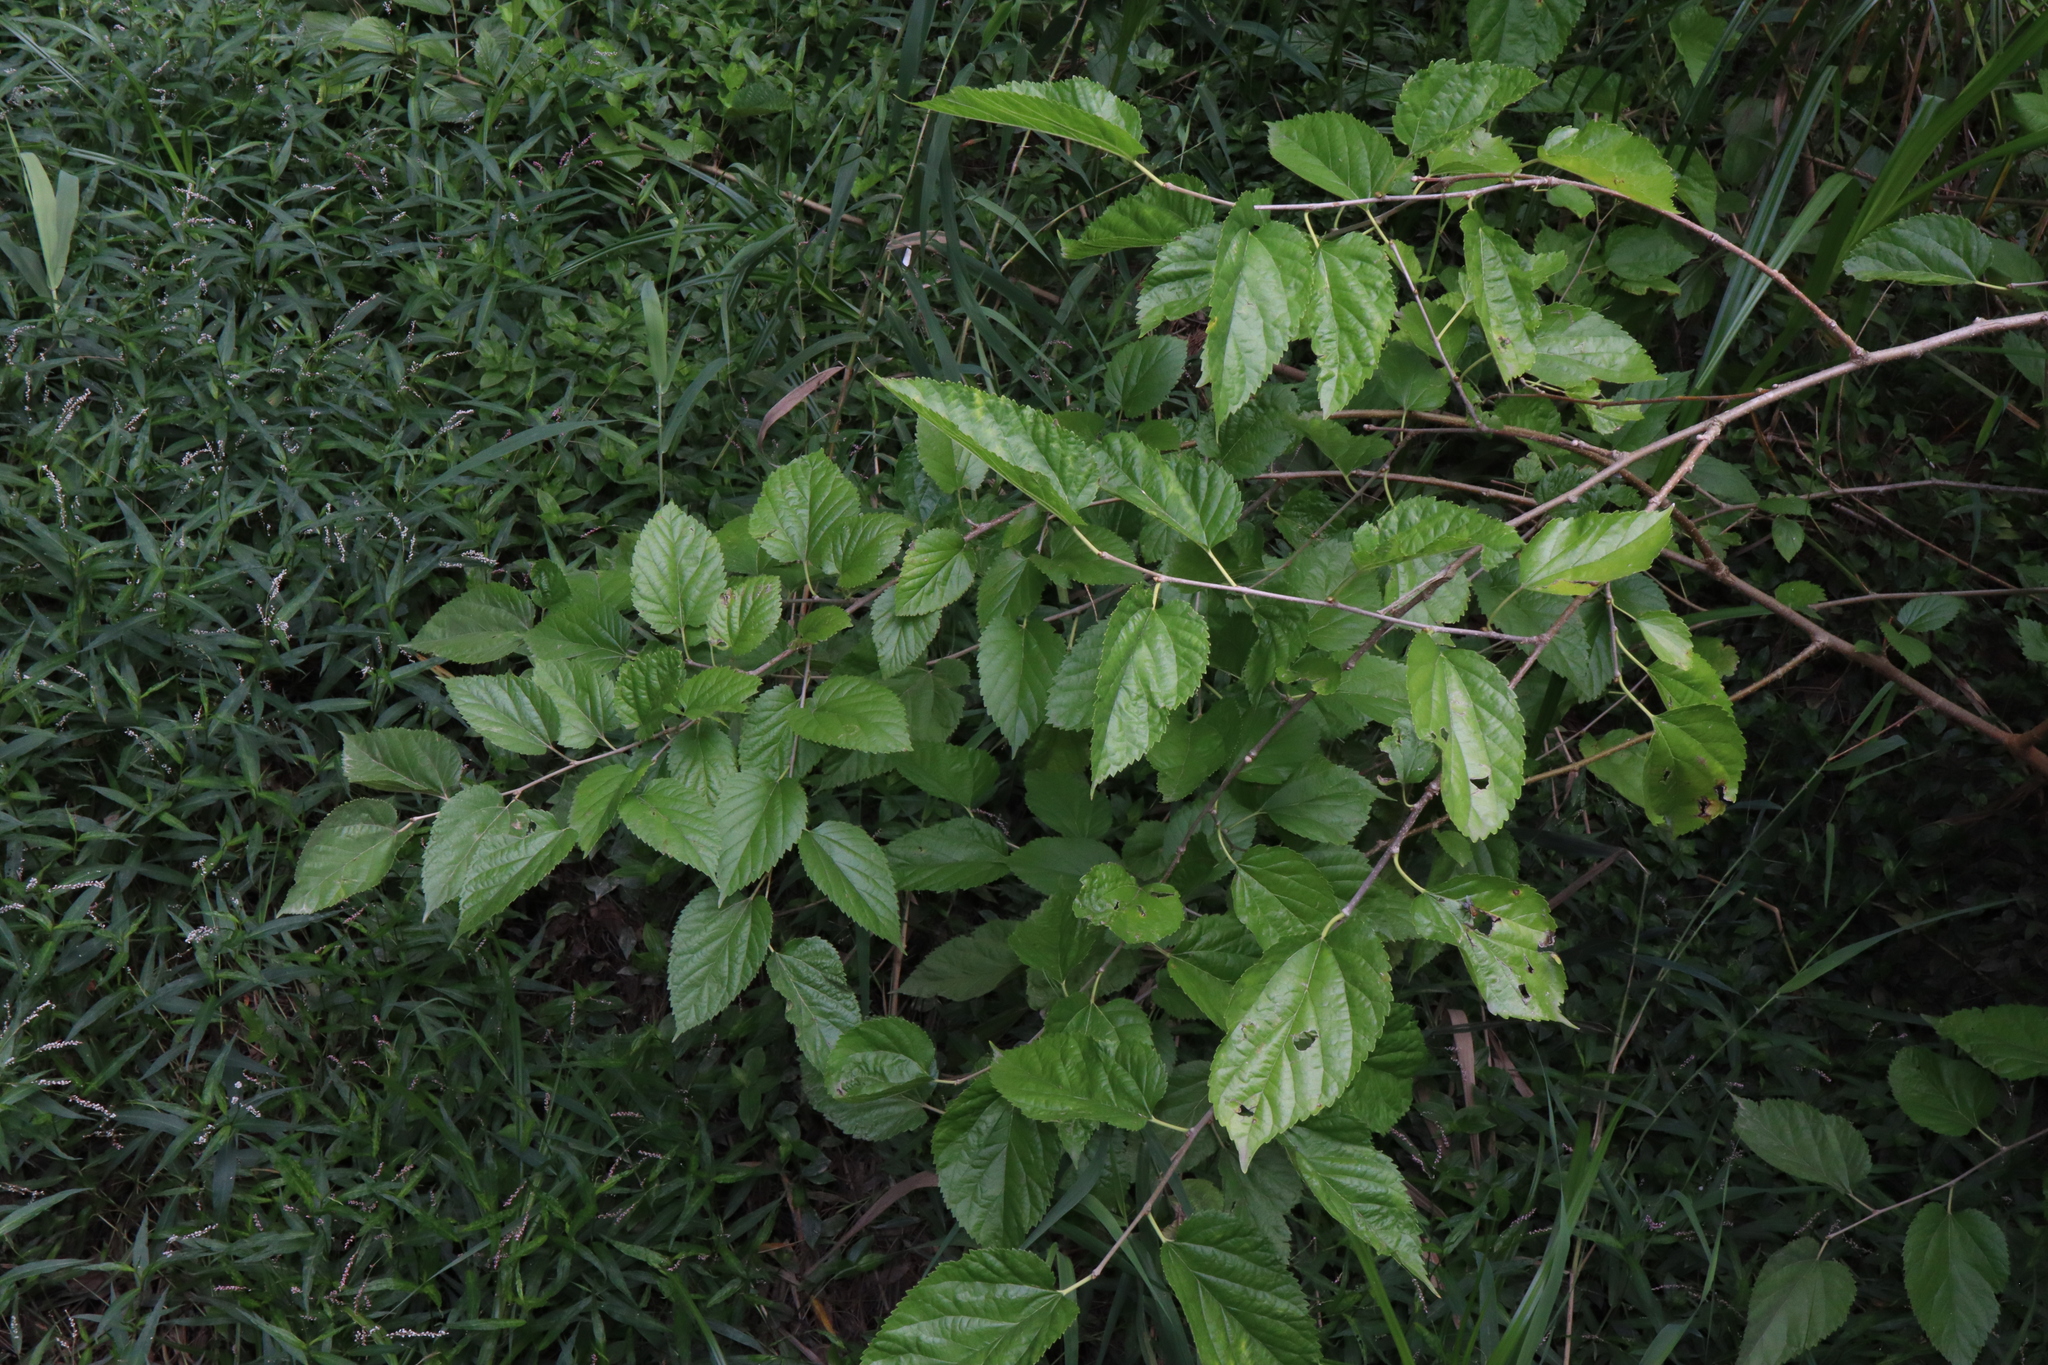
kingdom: Plantae
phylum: Tracheophyta
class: Magnoliopsida
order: Rosales
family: Moraceae
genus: Morus
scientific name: Morus alba
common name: White mulberry
